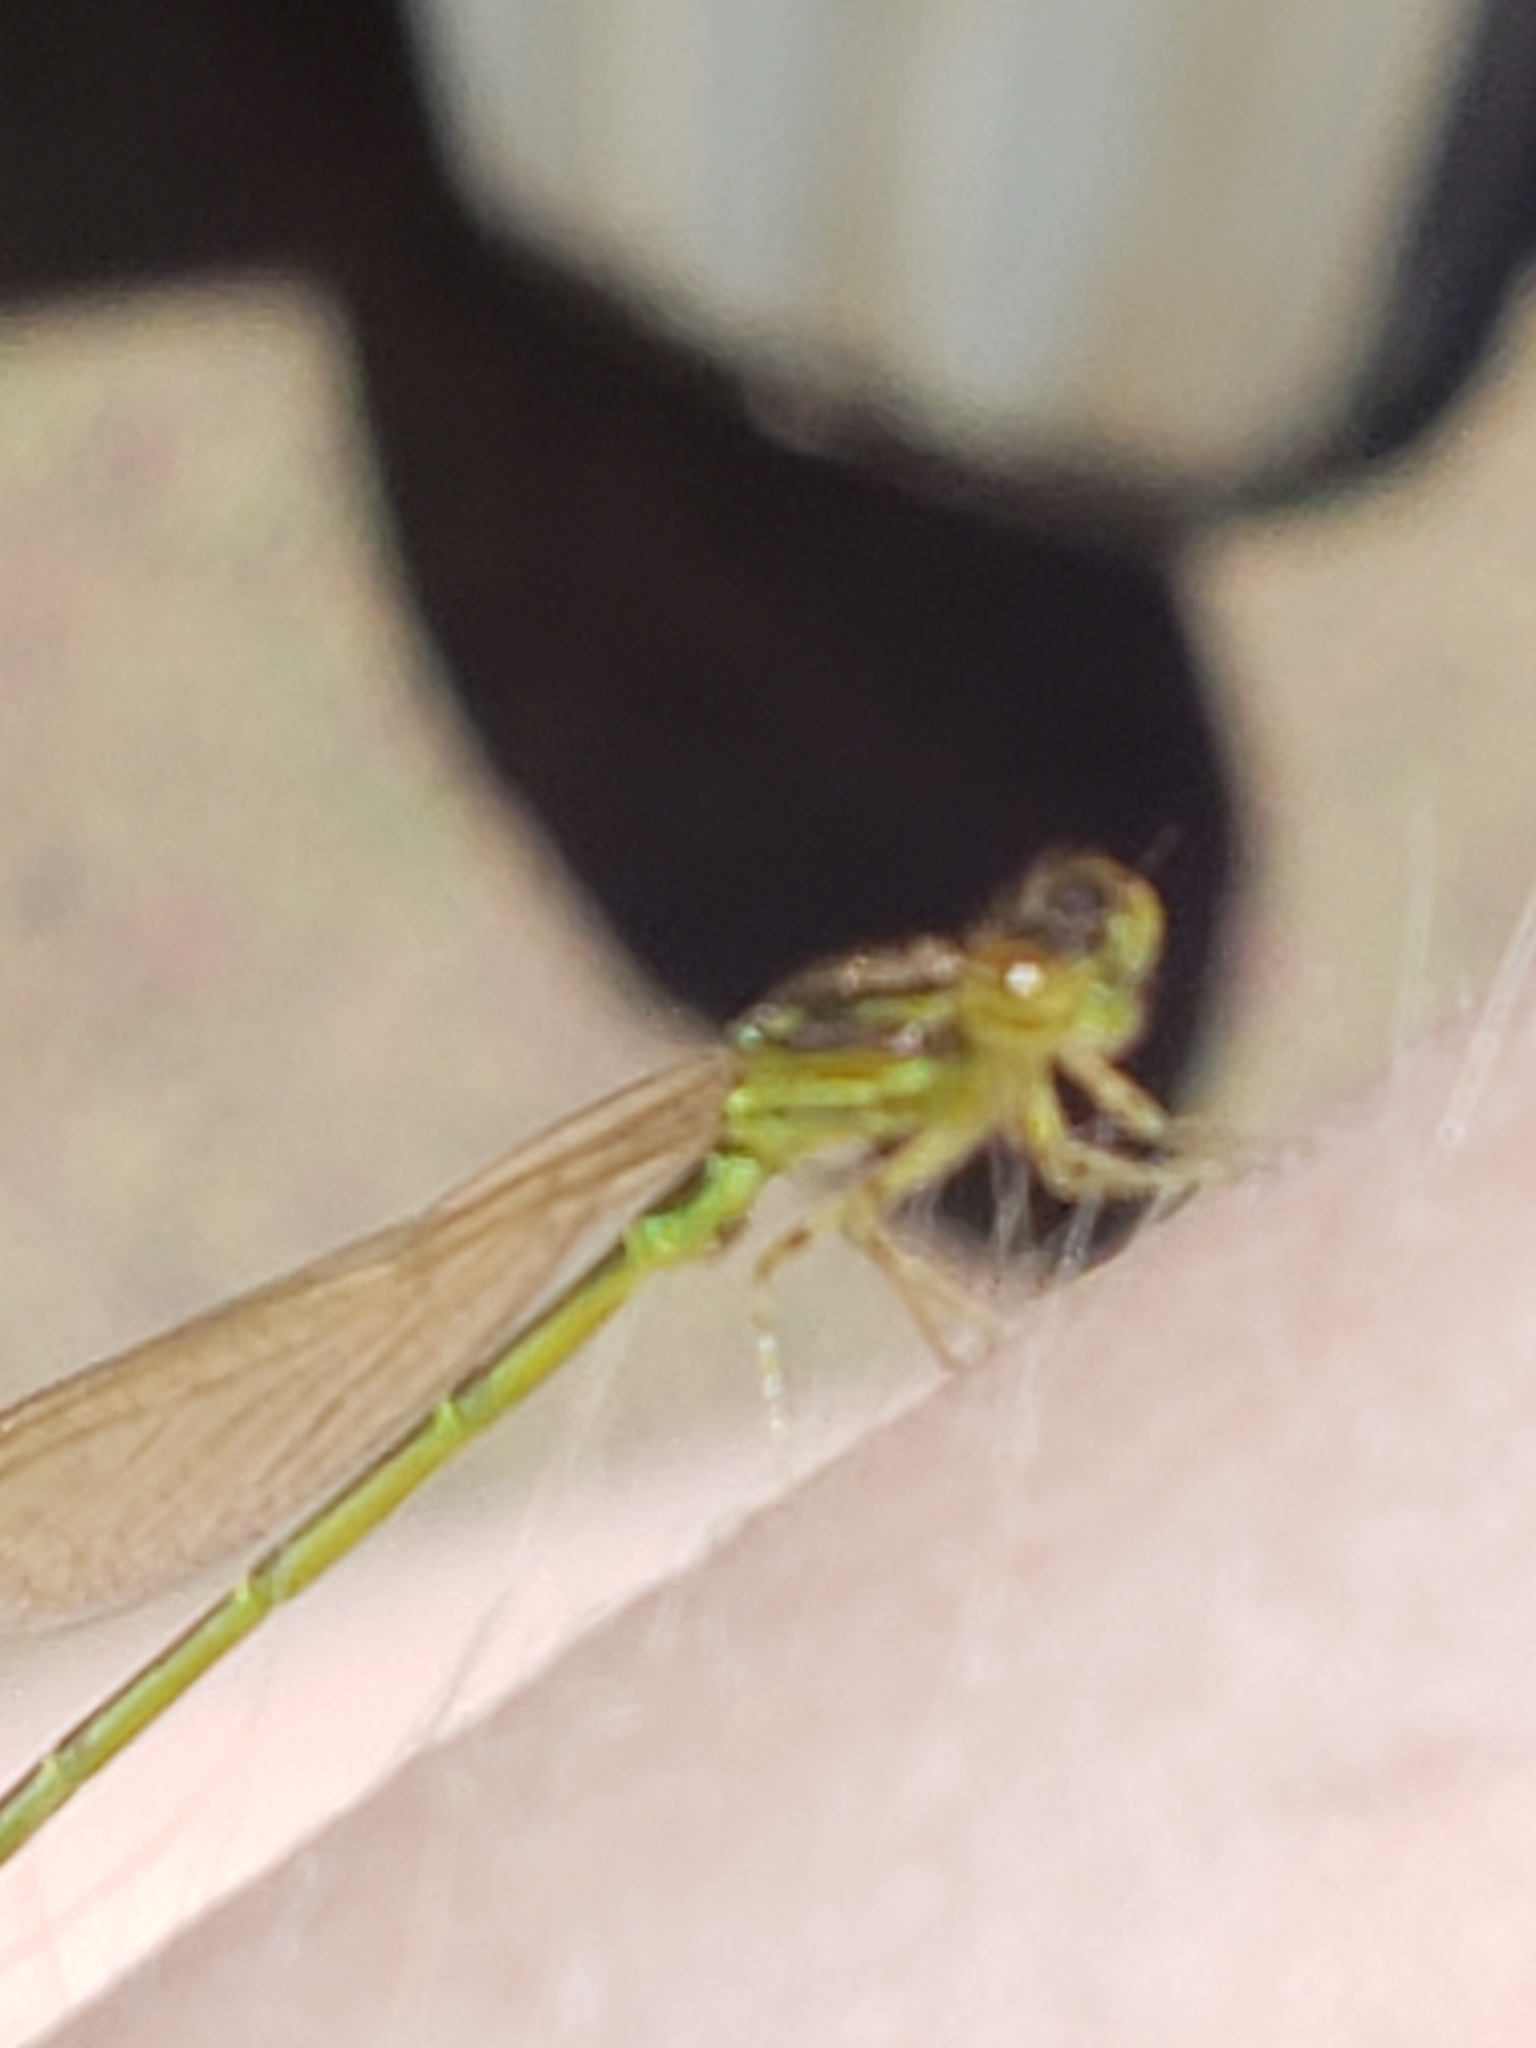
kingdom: Animalia
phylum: Arthropoda
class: Insecta
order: Odonata
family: Coenagrionidae
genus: Ischnura
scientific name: Ischnura posita
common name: Fragile forktail
